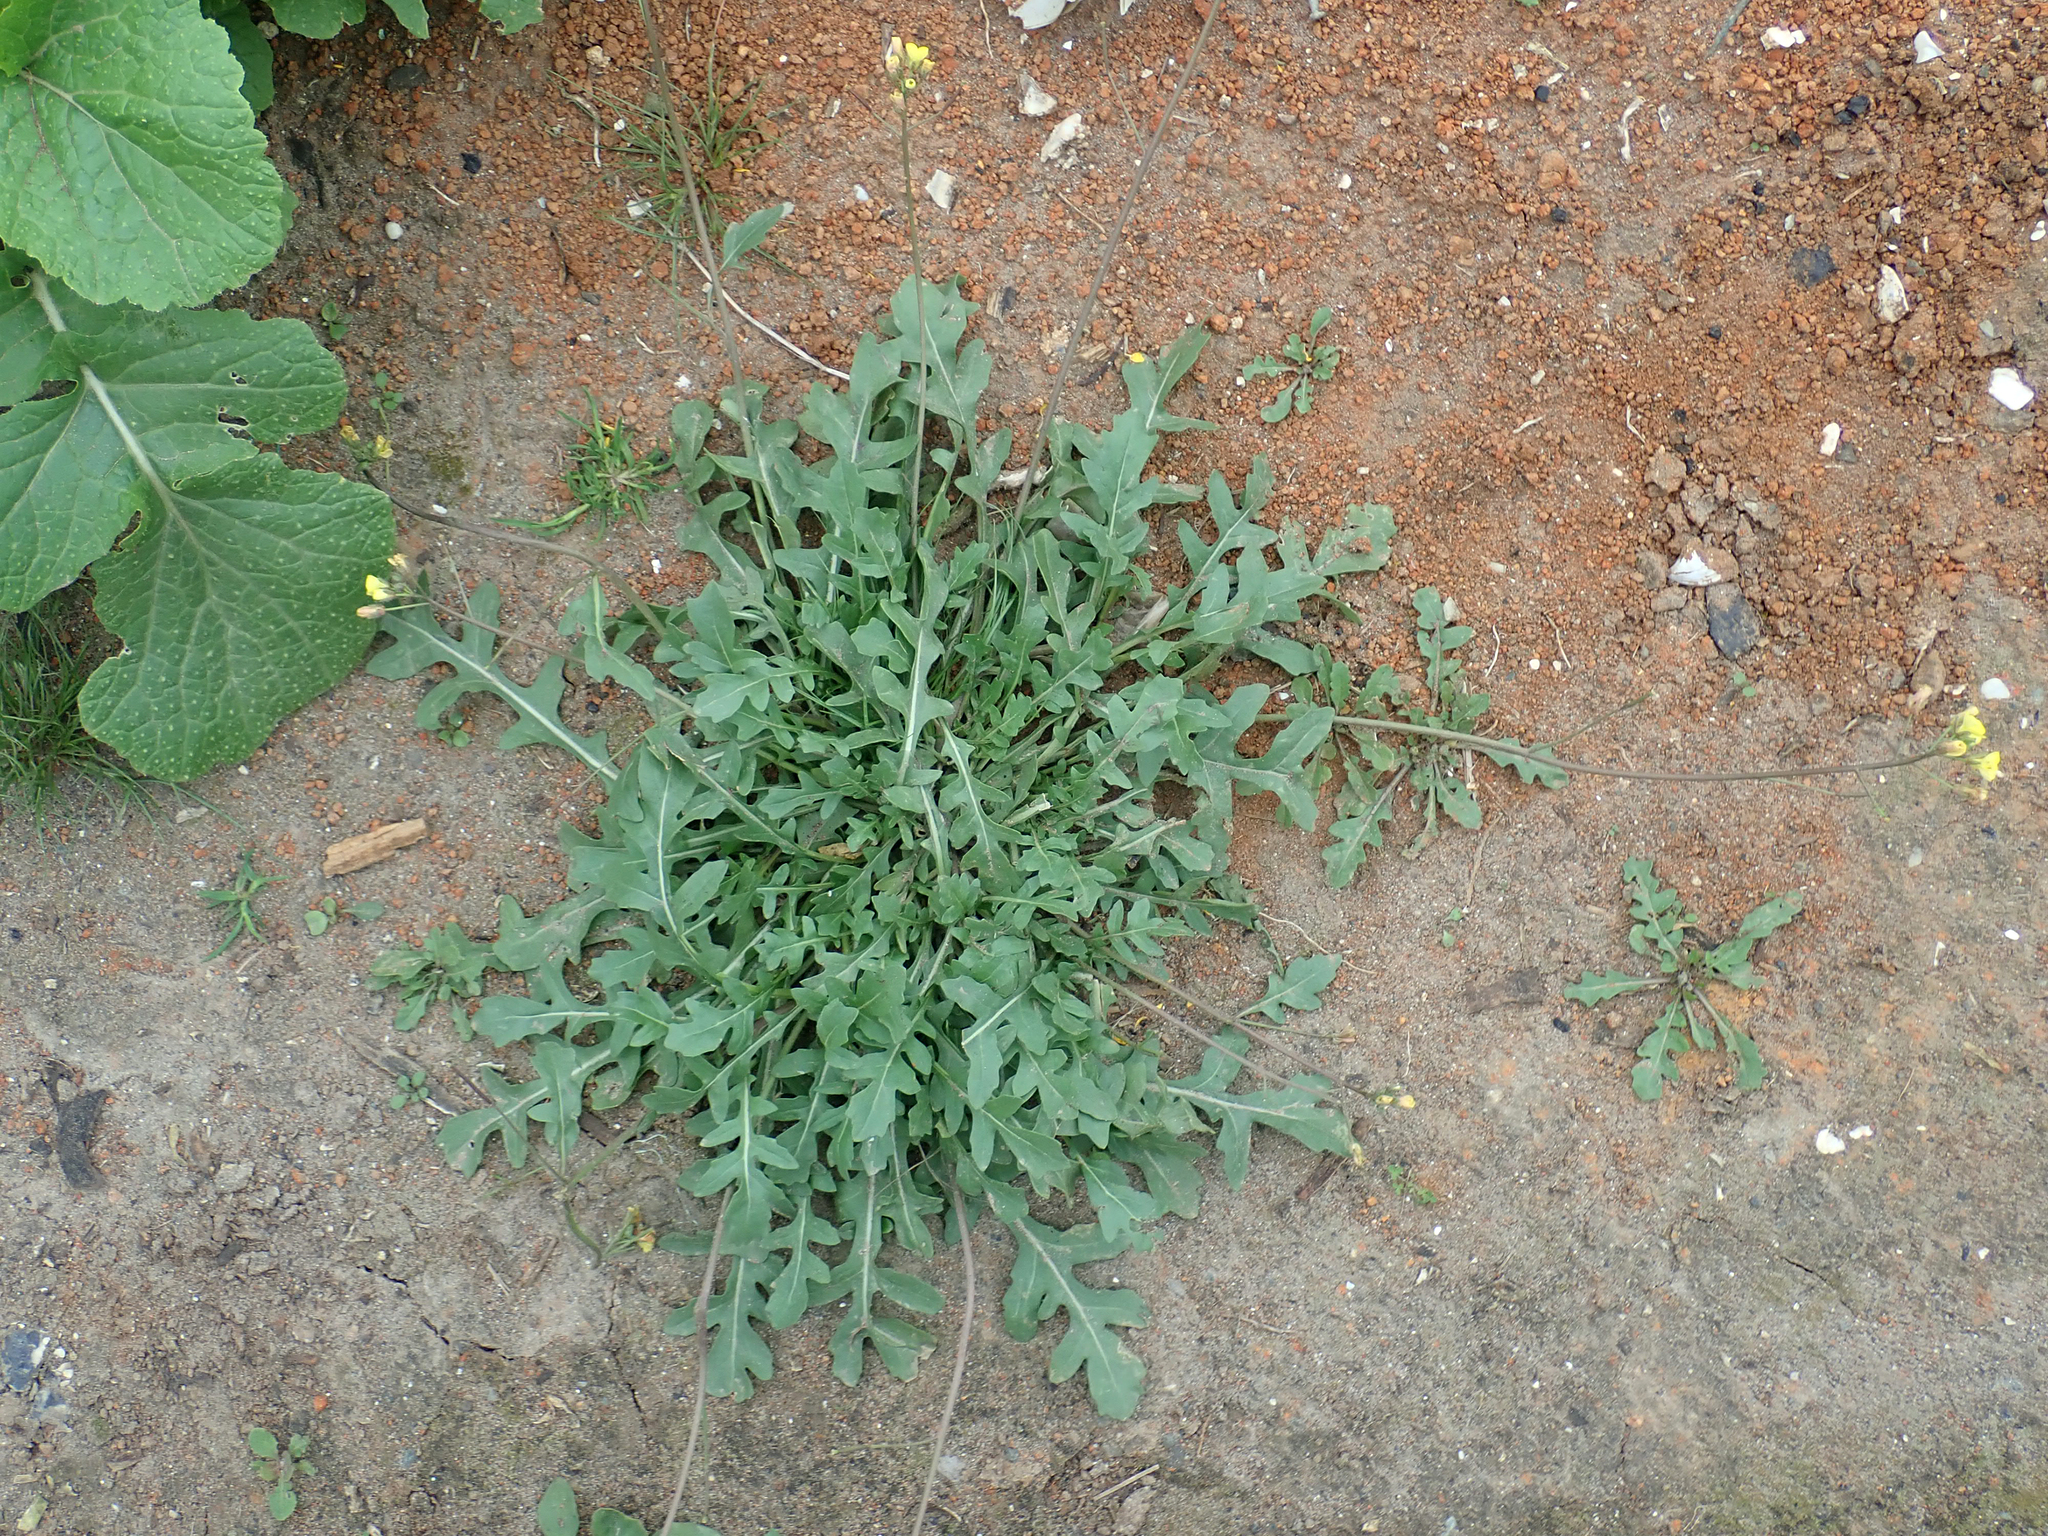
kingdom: Plantae
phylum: Tracheophyta
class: Magnoliopsida
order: Brassicales
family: Brassicaceae
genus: Diplotaxis
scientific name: Diplotaxis muralis
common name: Annual wall-rocket
